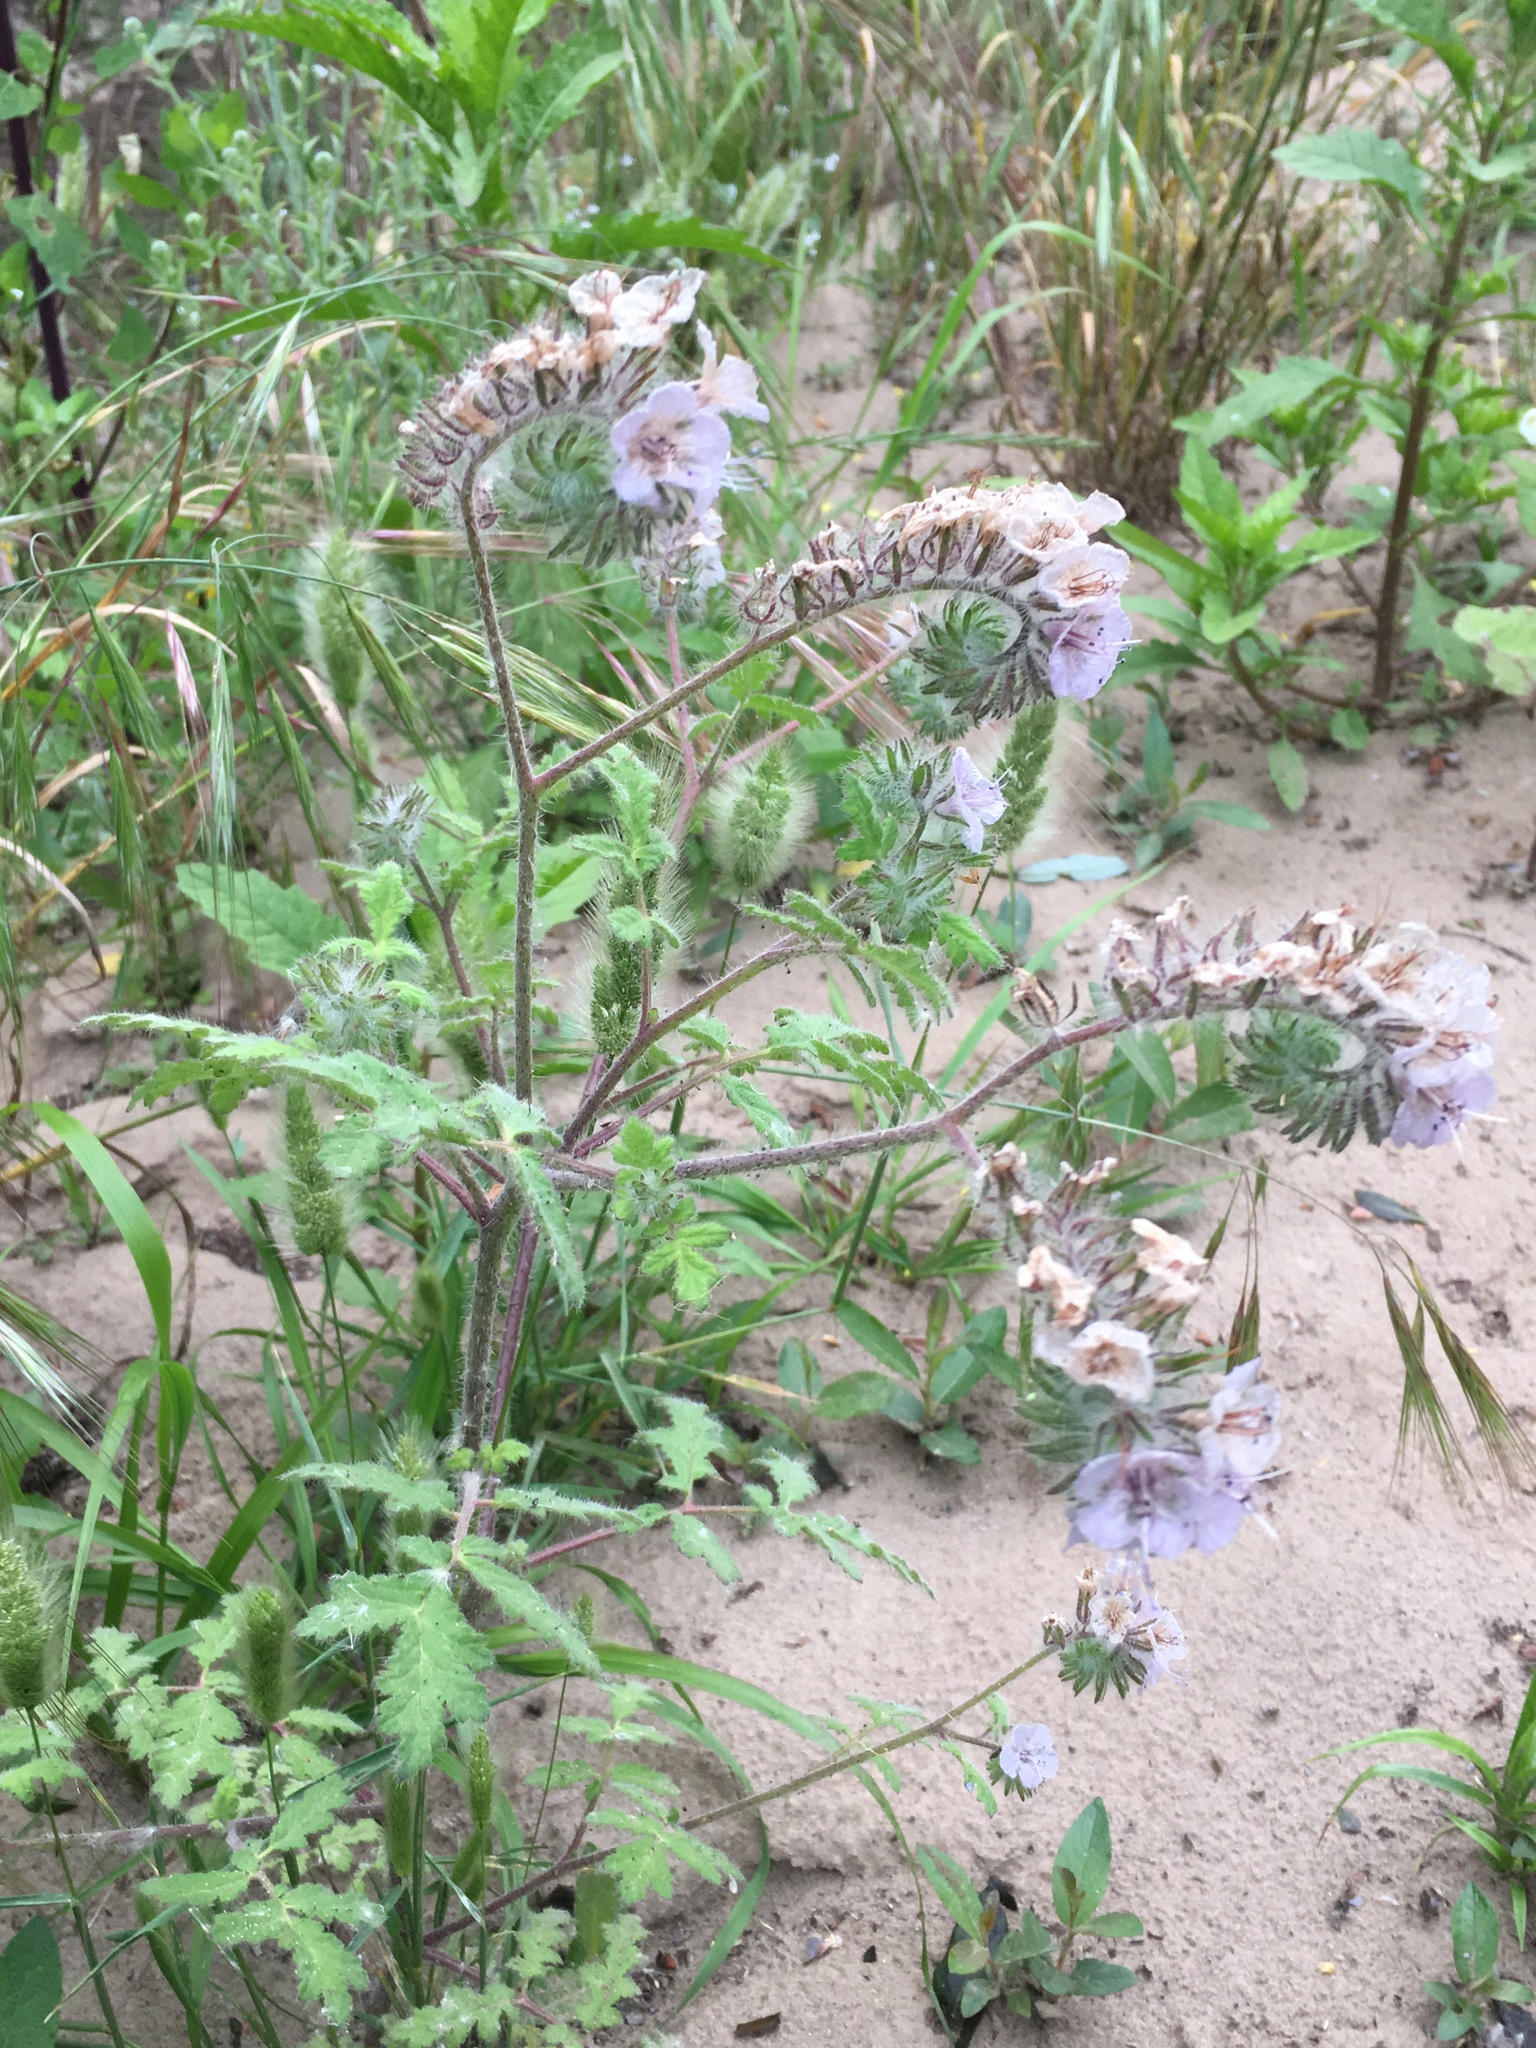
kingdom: Plantae
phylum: Tracheophyta
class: Magnoliopsida
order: Boraginales
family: Hydrophyllaceae
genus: Phacelia
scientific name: Phacelia cicutaria
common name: Caterpillar phacelia
